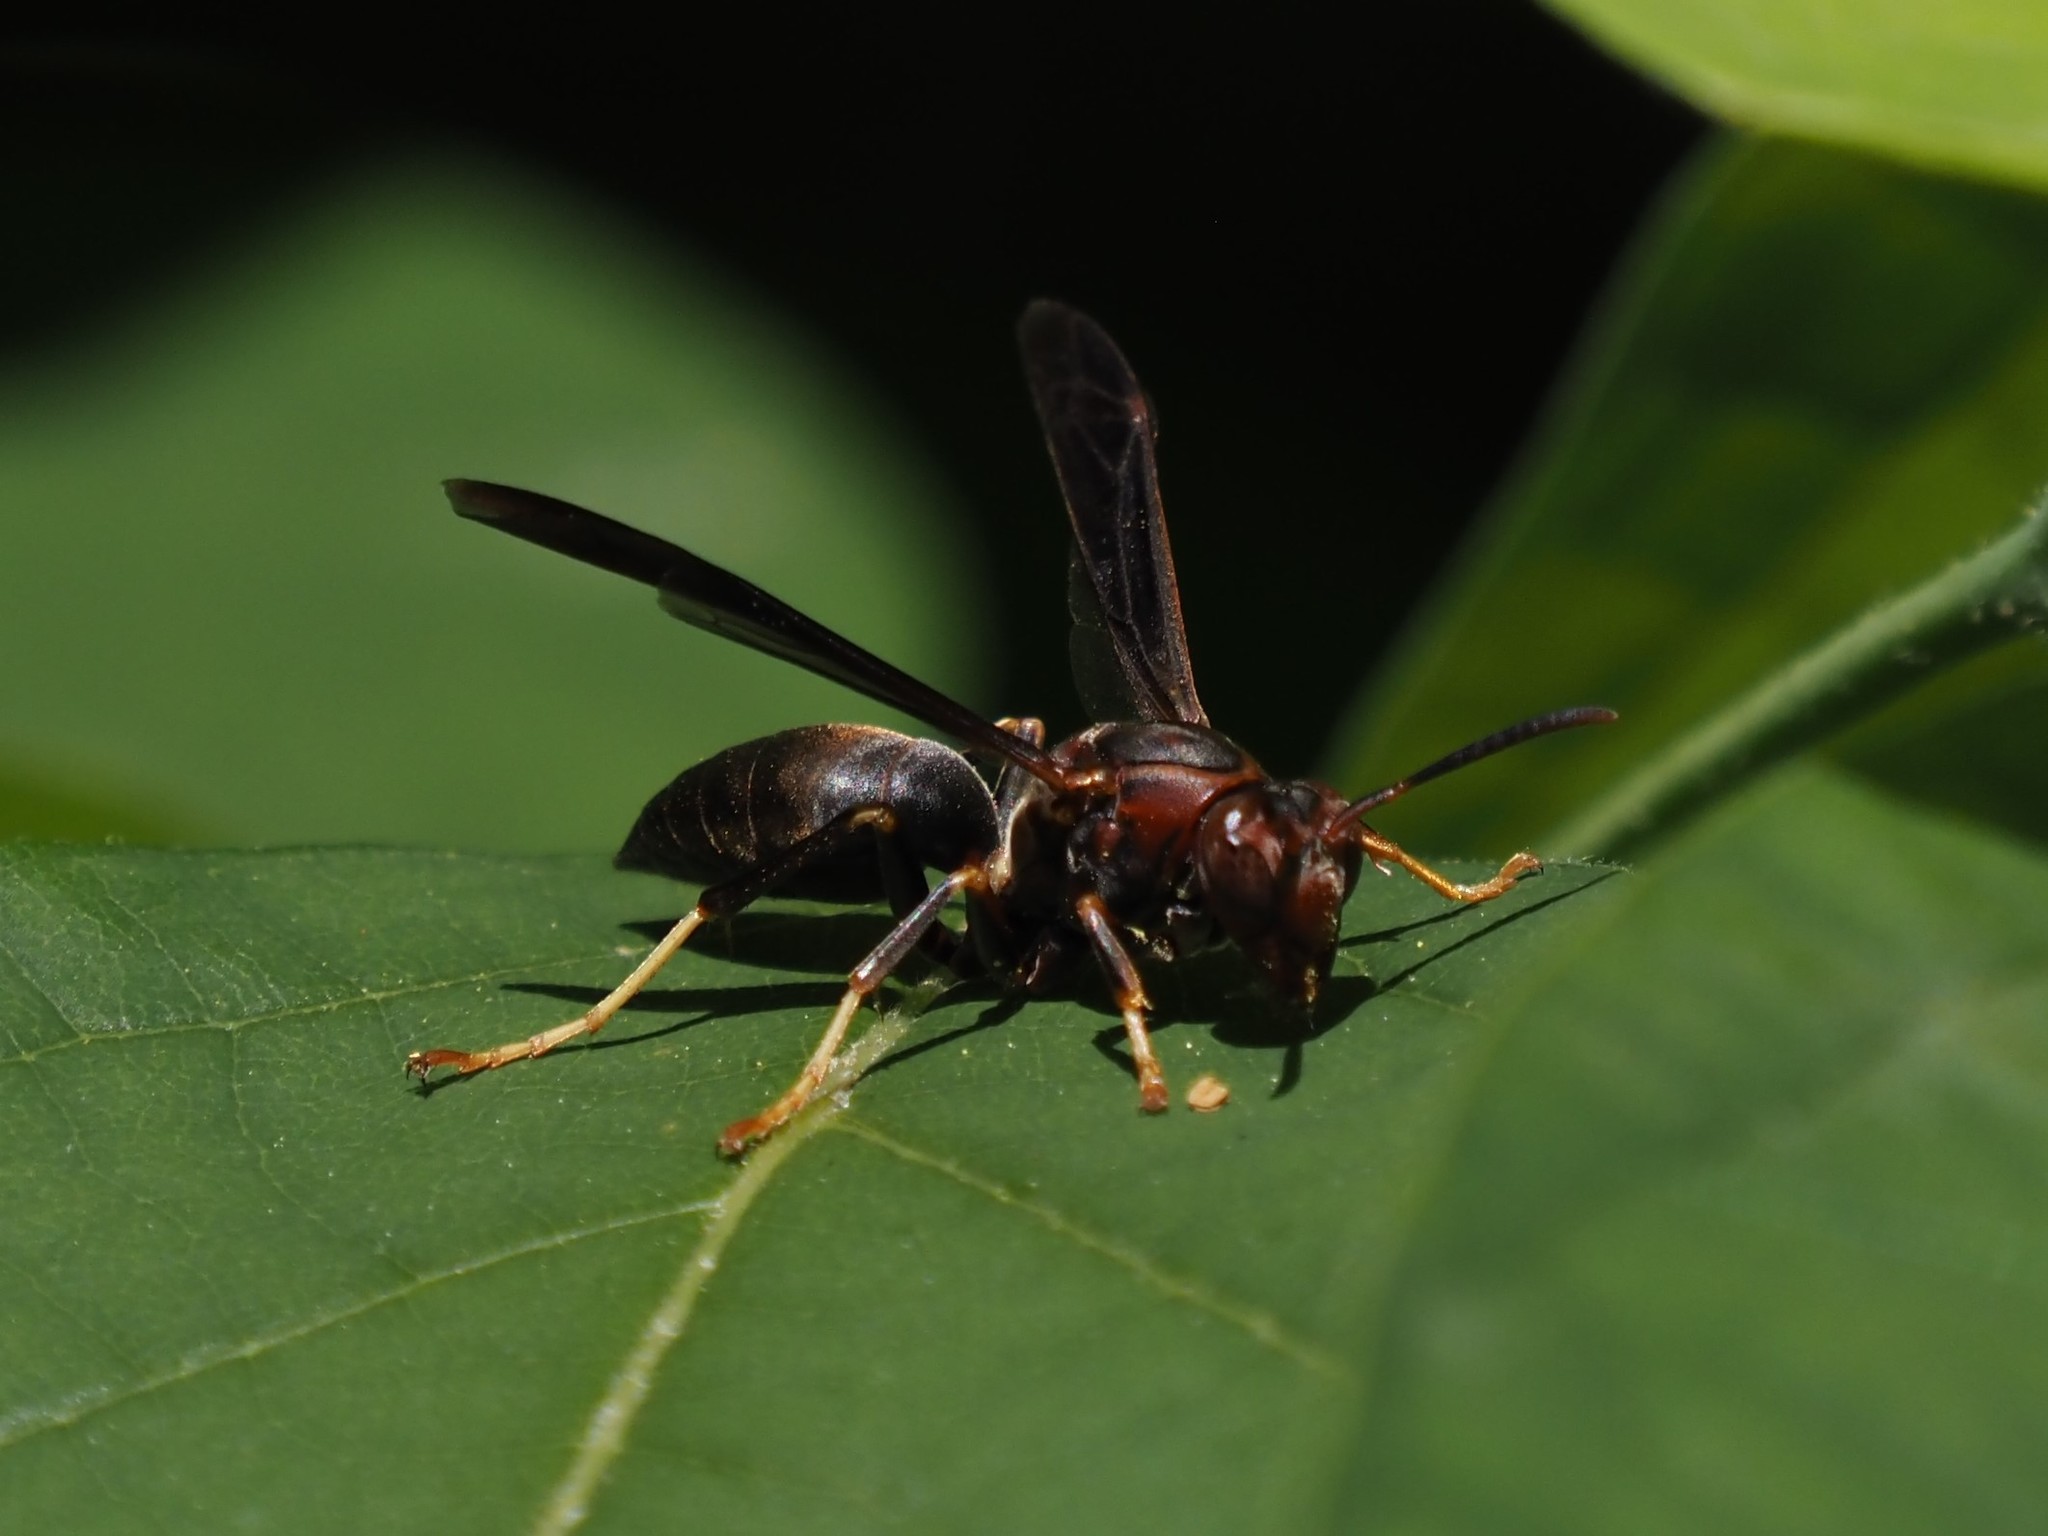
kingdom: Animalia
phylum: Arthropoda
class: Insecta
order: Hymenoptera
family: Eumenidae
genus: Polistes
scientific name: Polistes metricus
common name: Metric paper wasp
